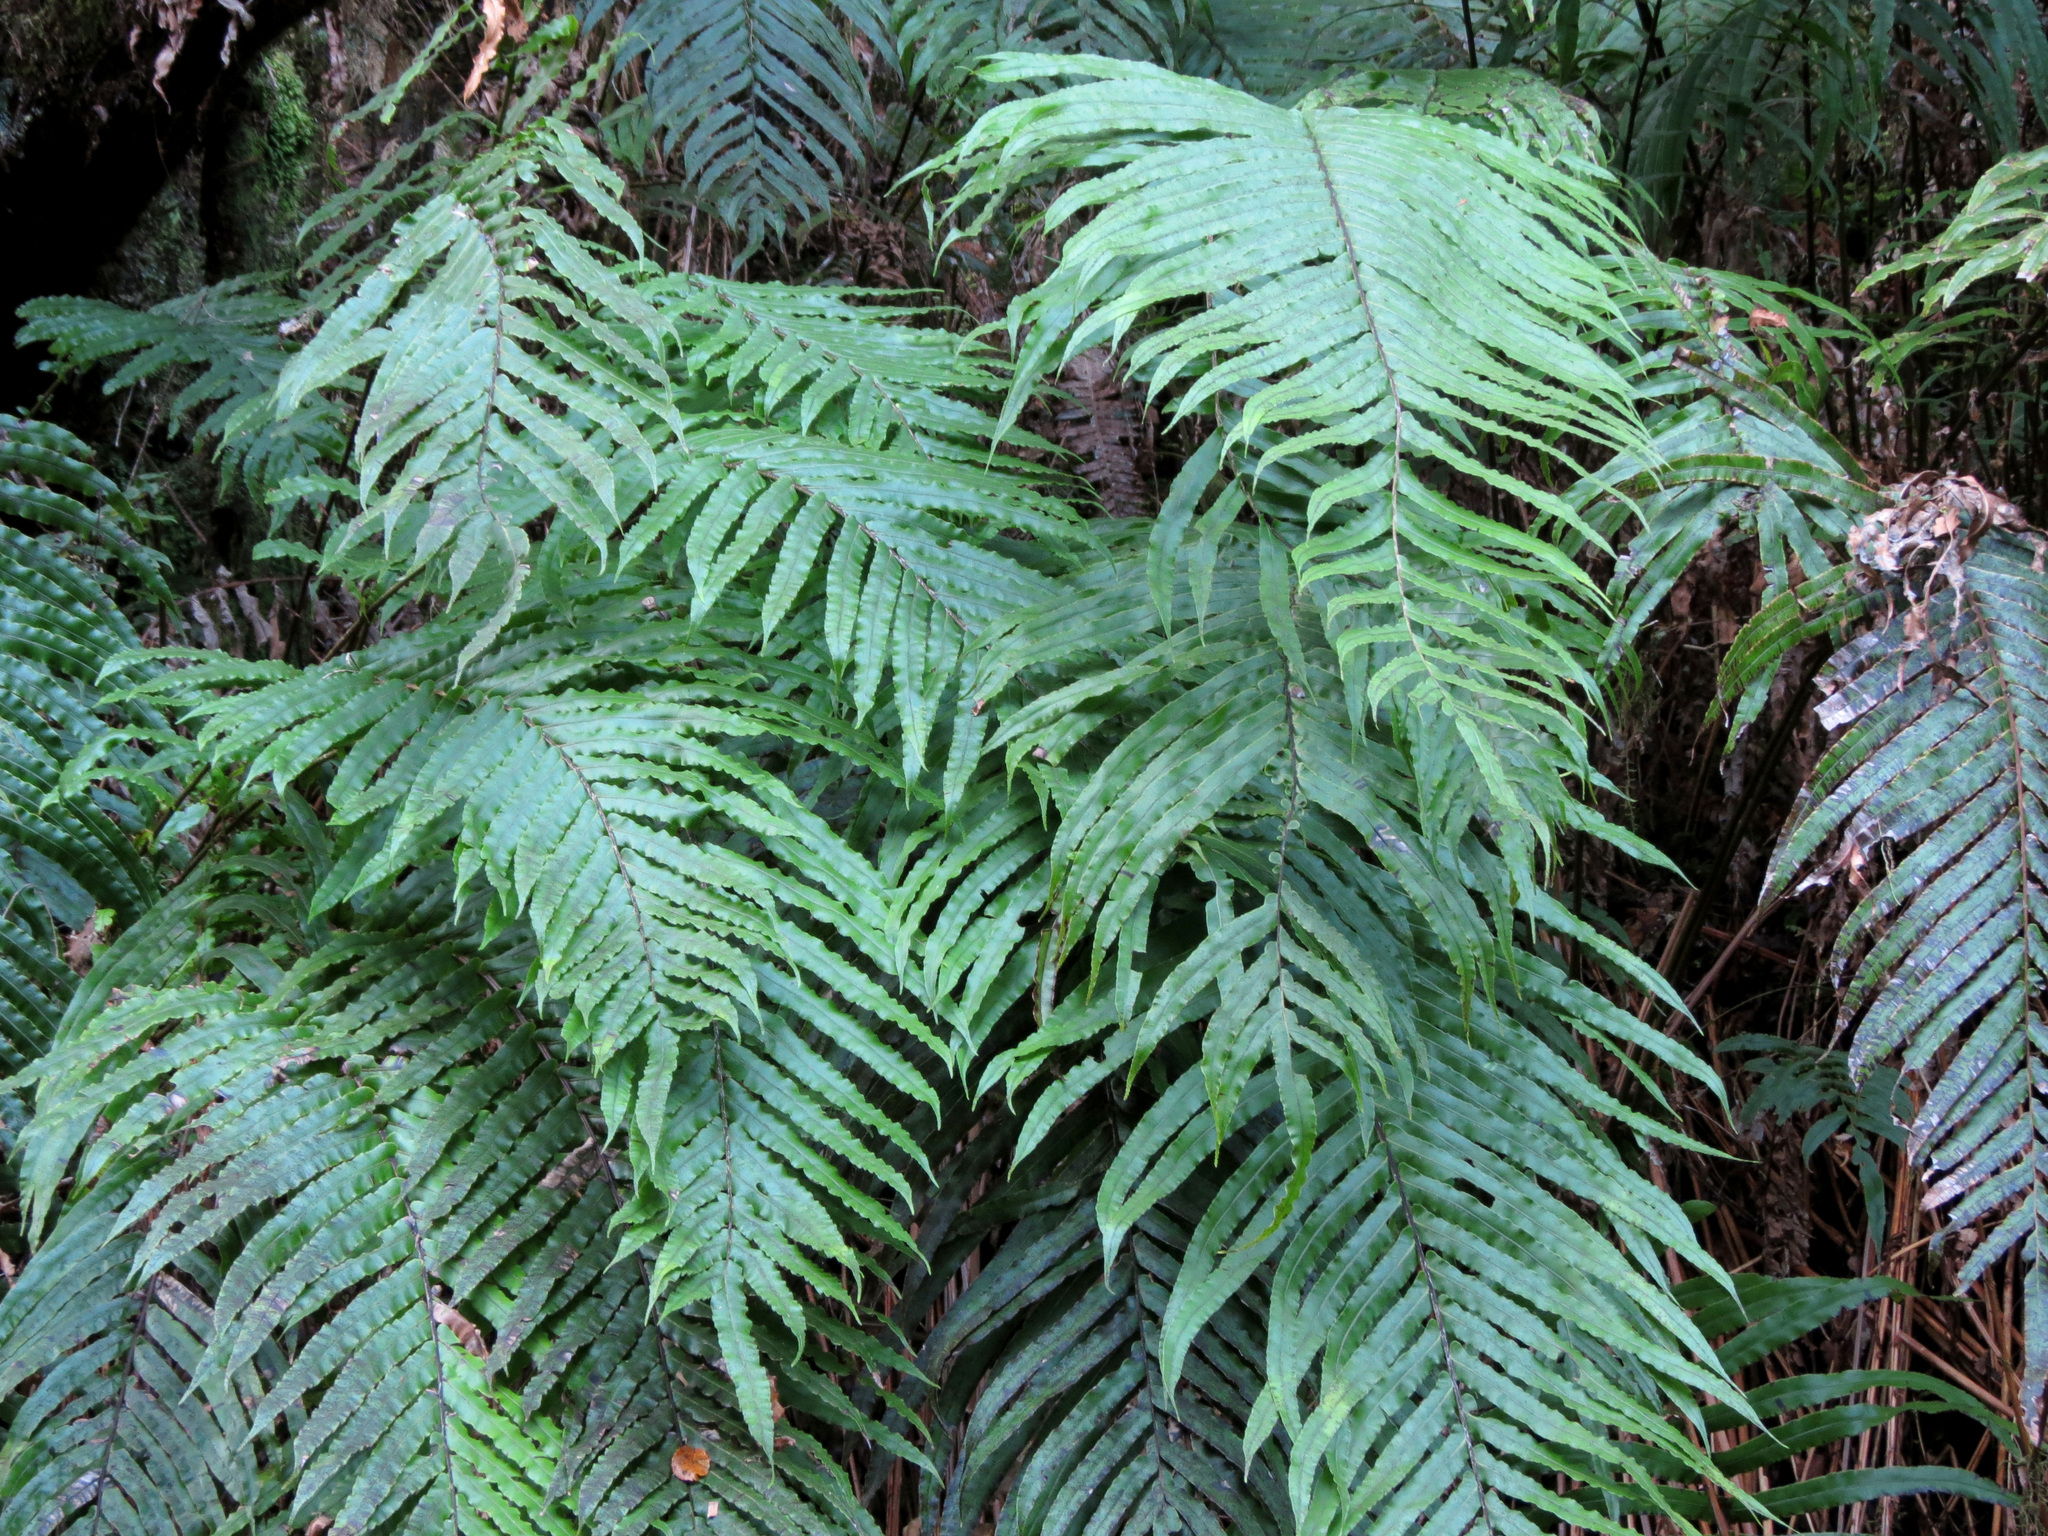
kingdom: Plantae
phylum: Tracheophyta
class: Polypodiopsida
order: Polypodiales
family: Blechnaceae
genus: Parablechnum
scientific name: Parablechnum novae-zelandiae
